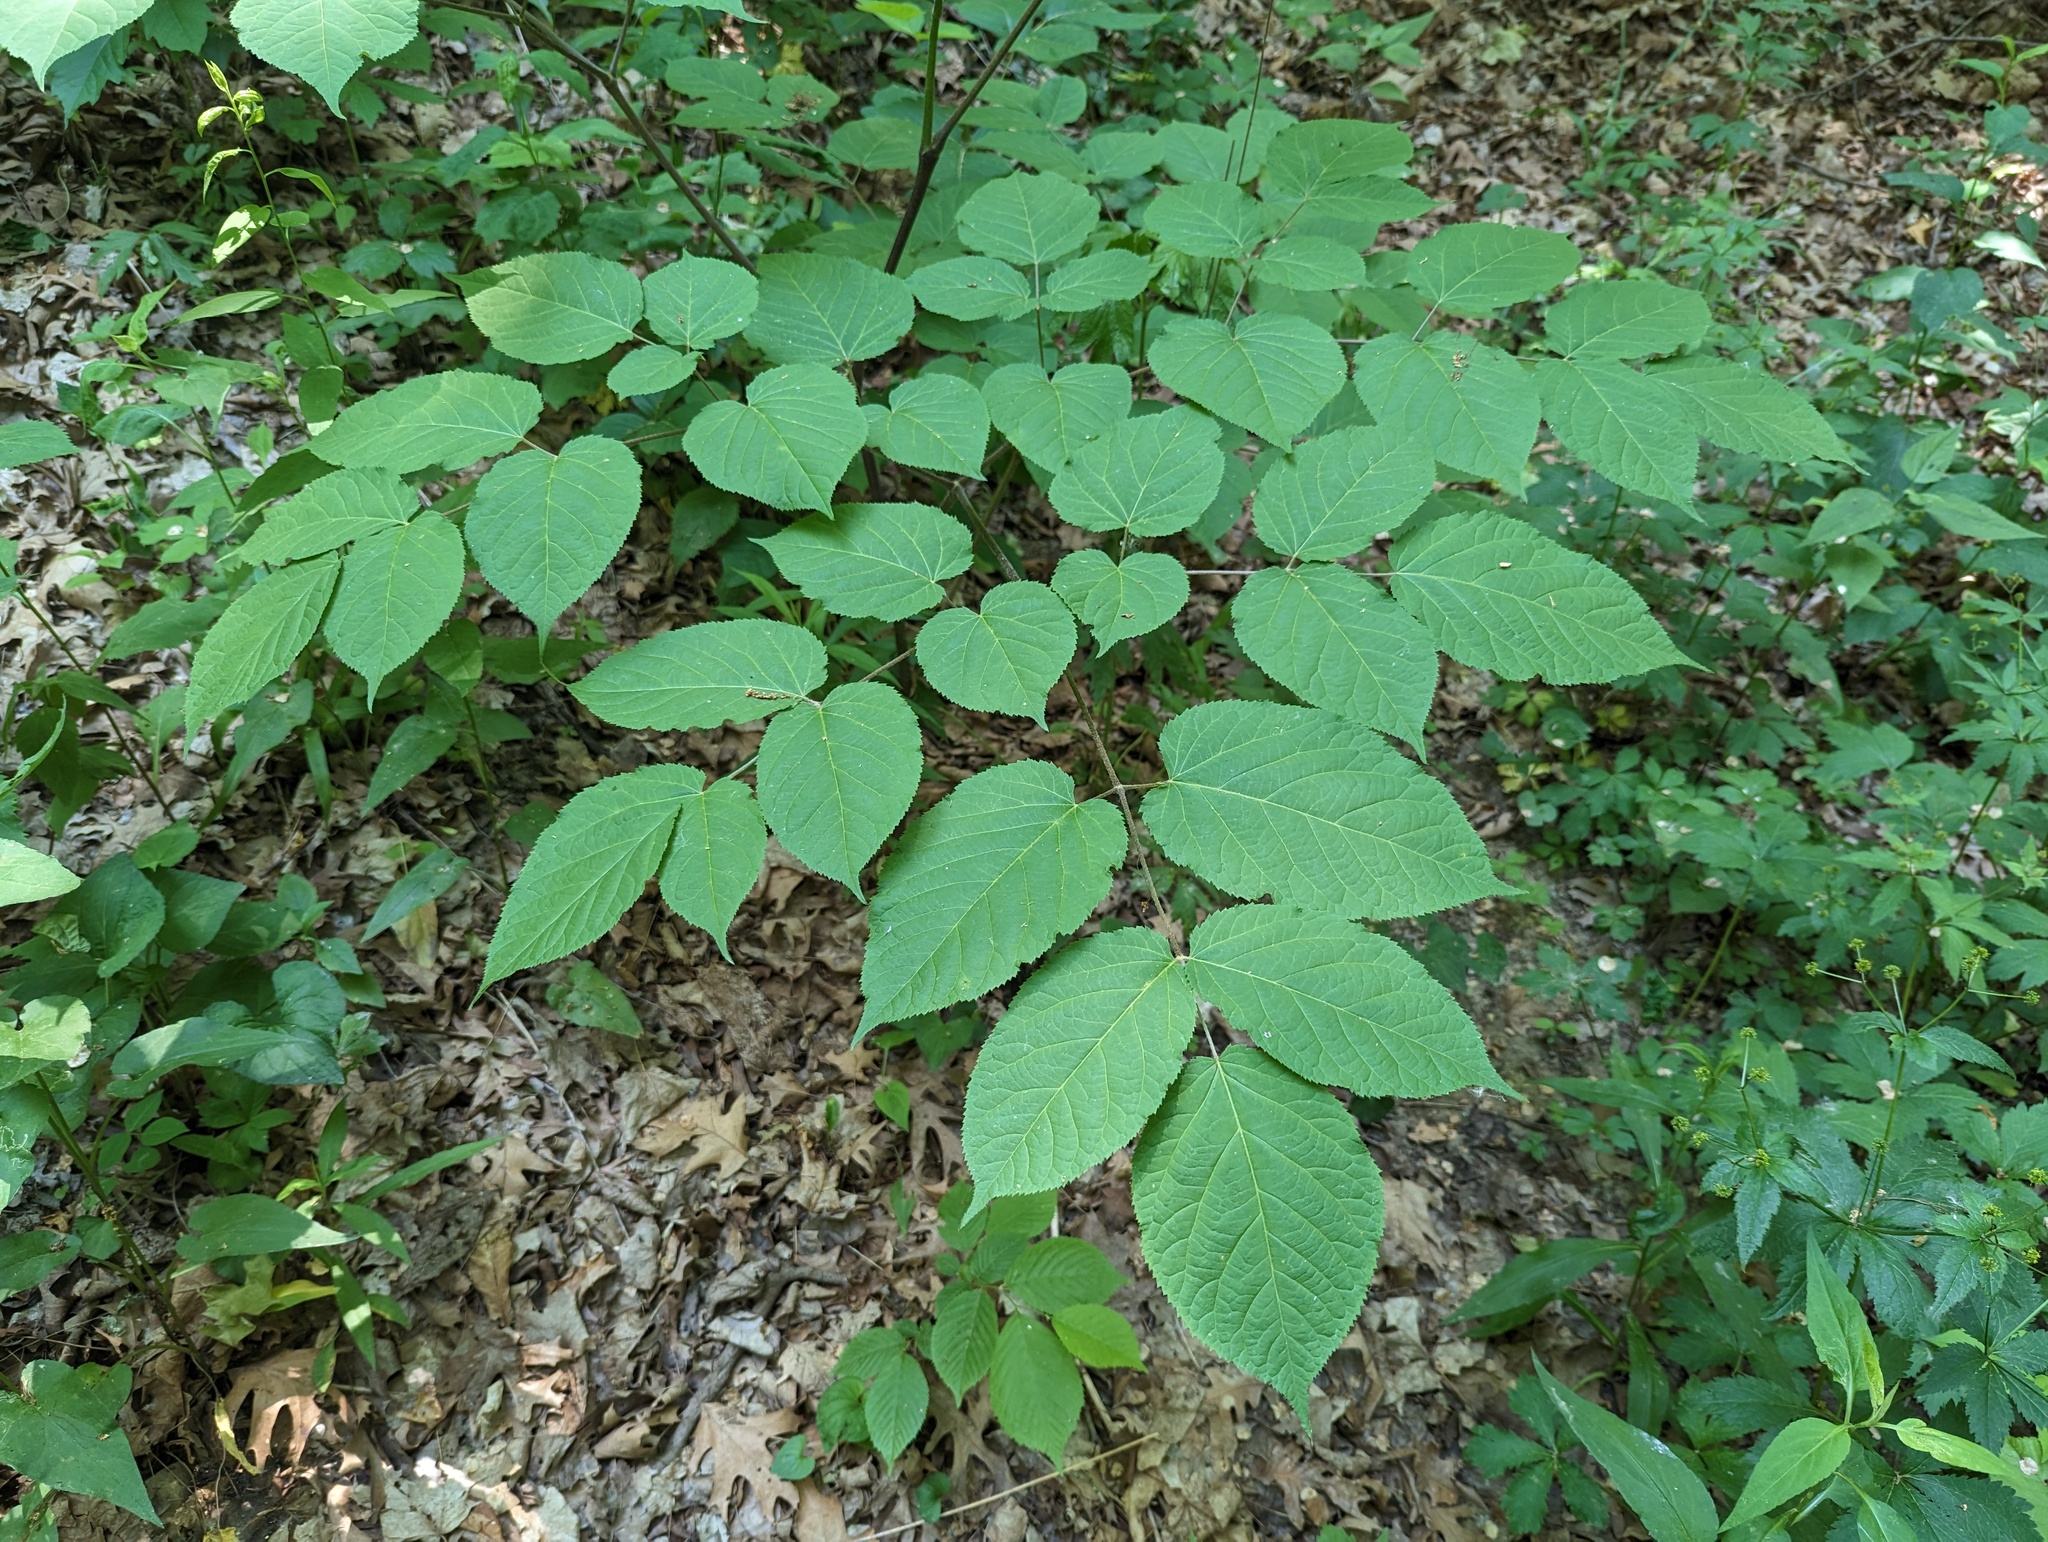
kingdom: Plantae
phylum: Tracheophyta
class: Magnoliopsida
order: Apiales
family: Araliaceae
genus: Aralia
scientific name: Aralia racemosa
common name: American-spikenard
